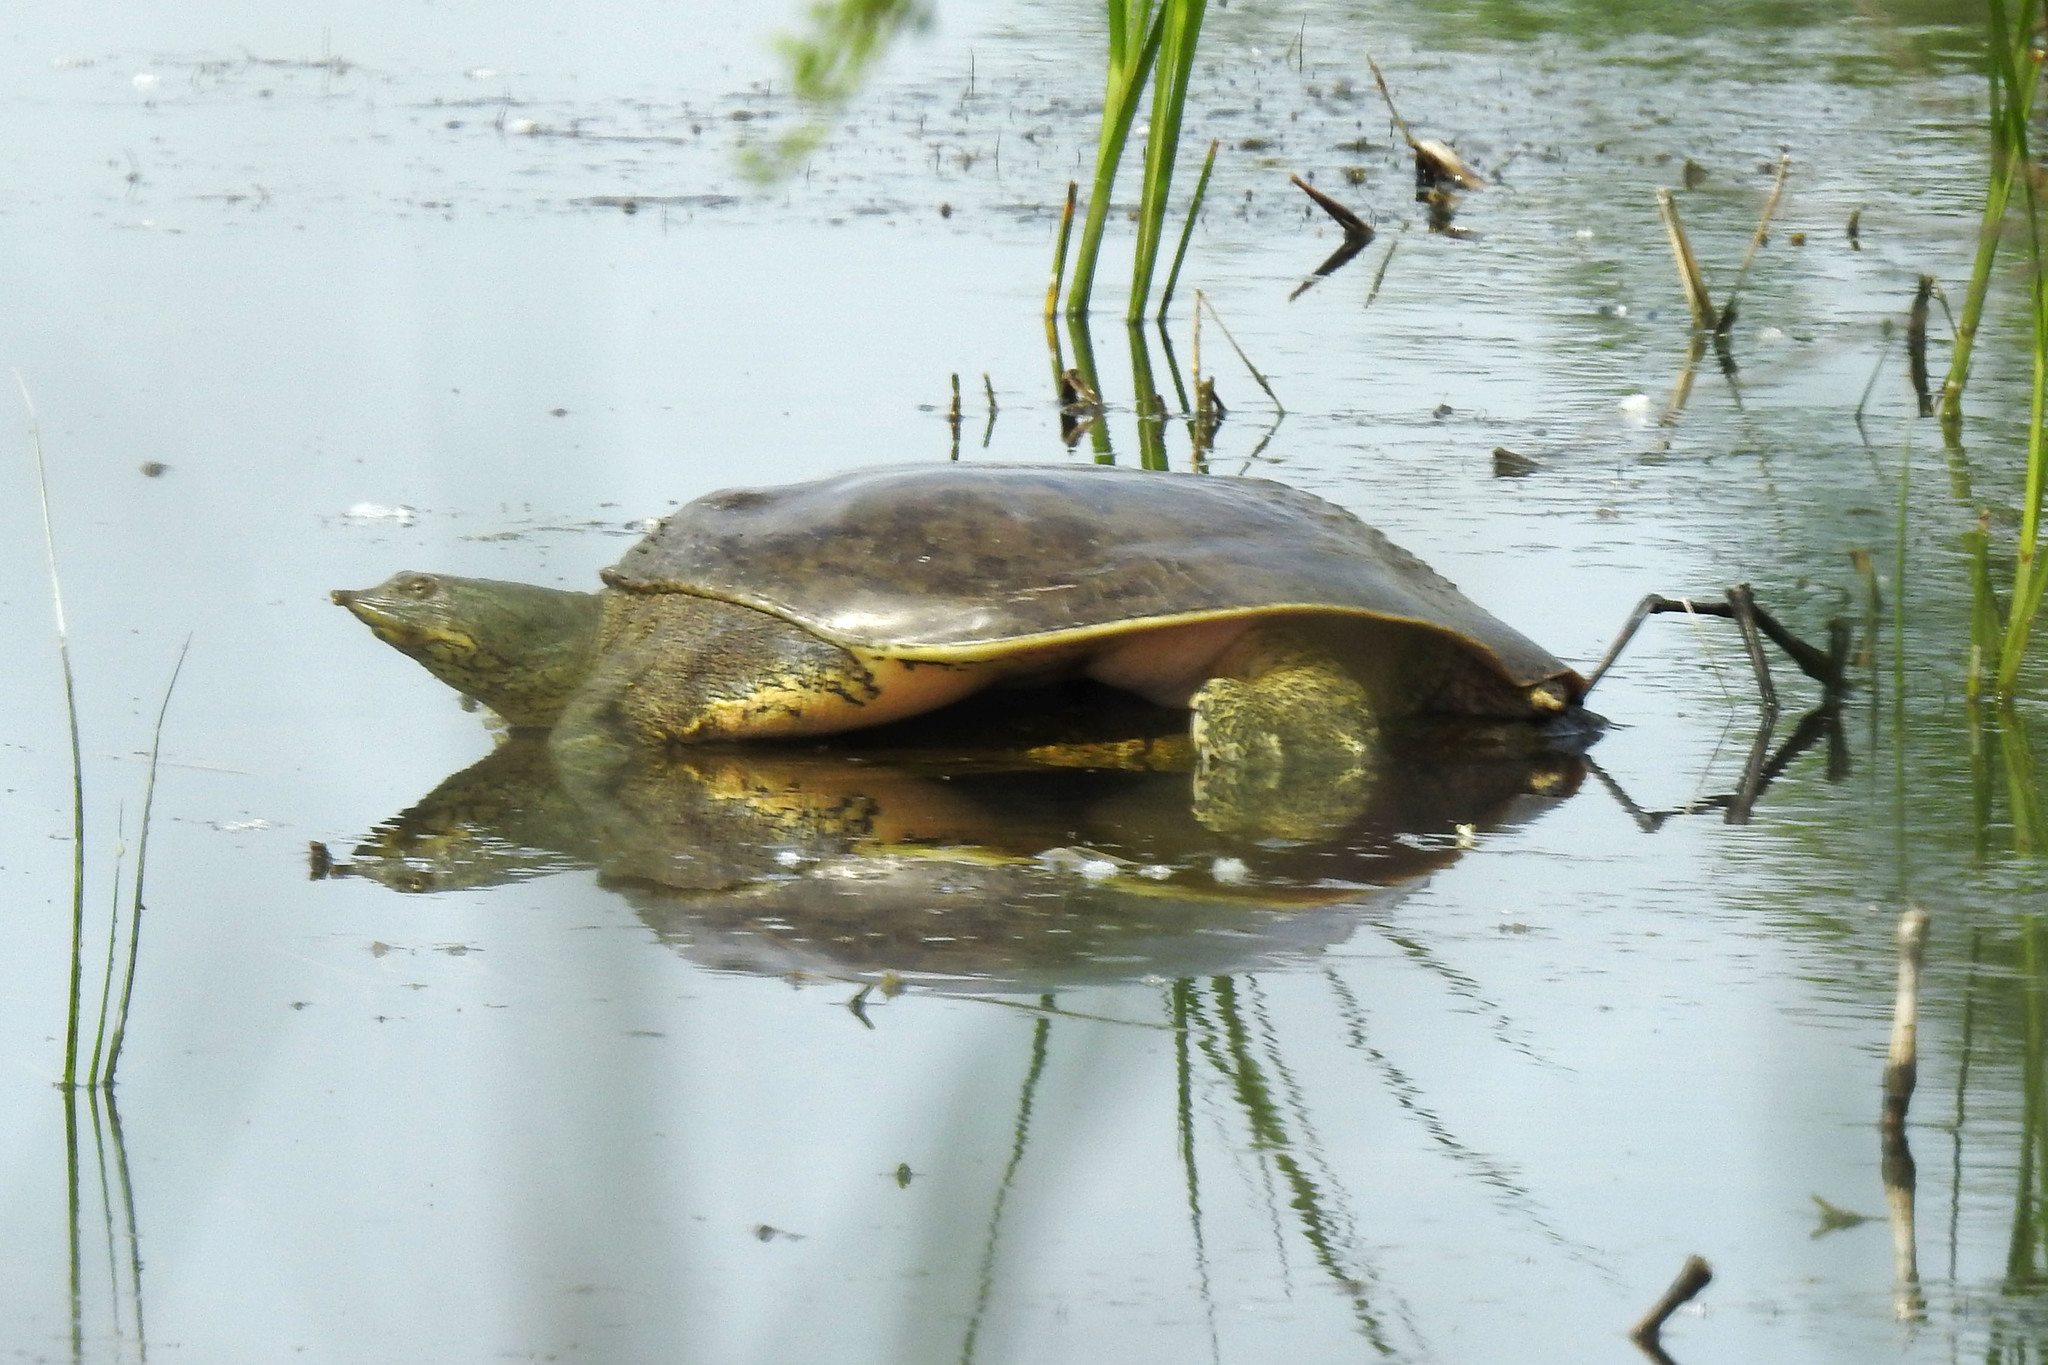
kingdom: Animalia
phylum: Chordata
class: Testudines
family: Trionychidae
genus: Apalone
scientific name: Apalone spinifera
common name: Spiny softshell turtle
